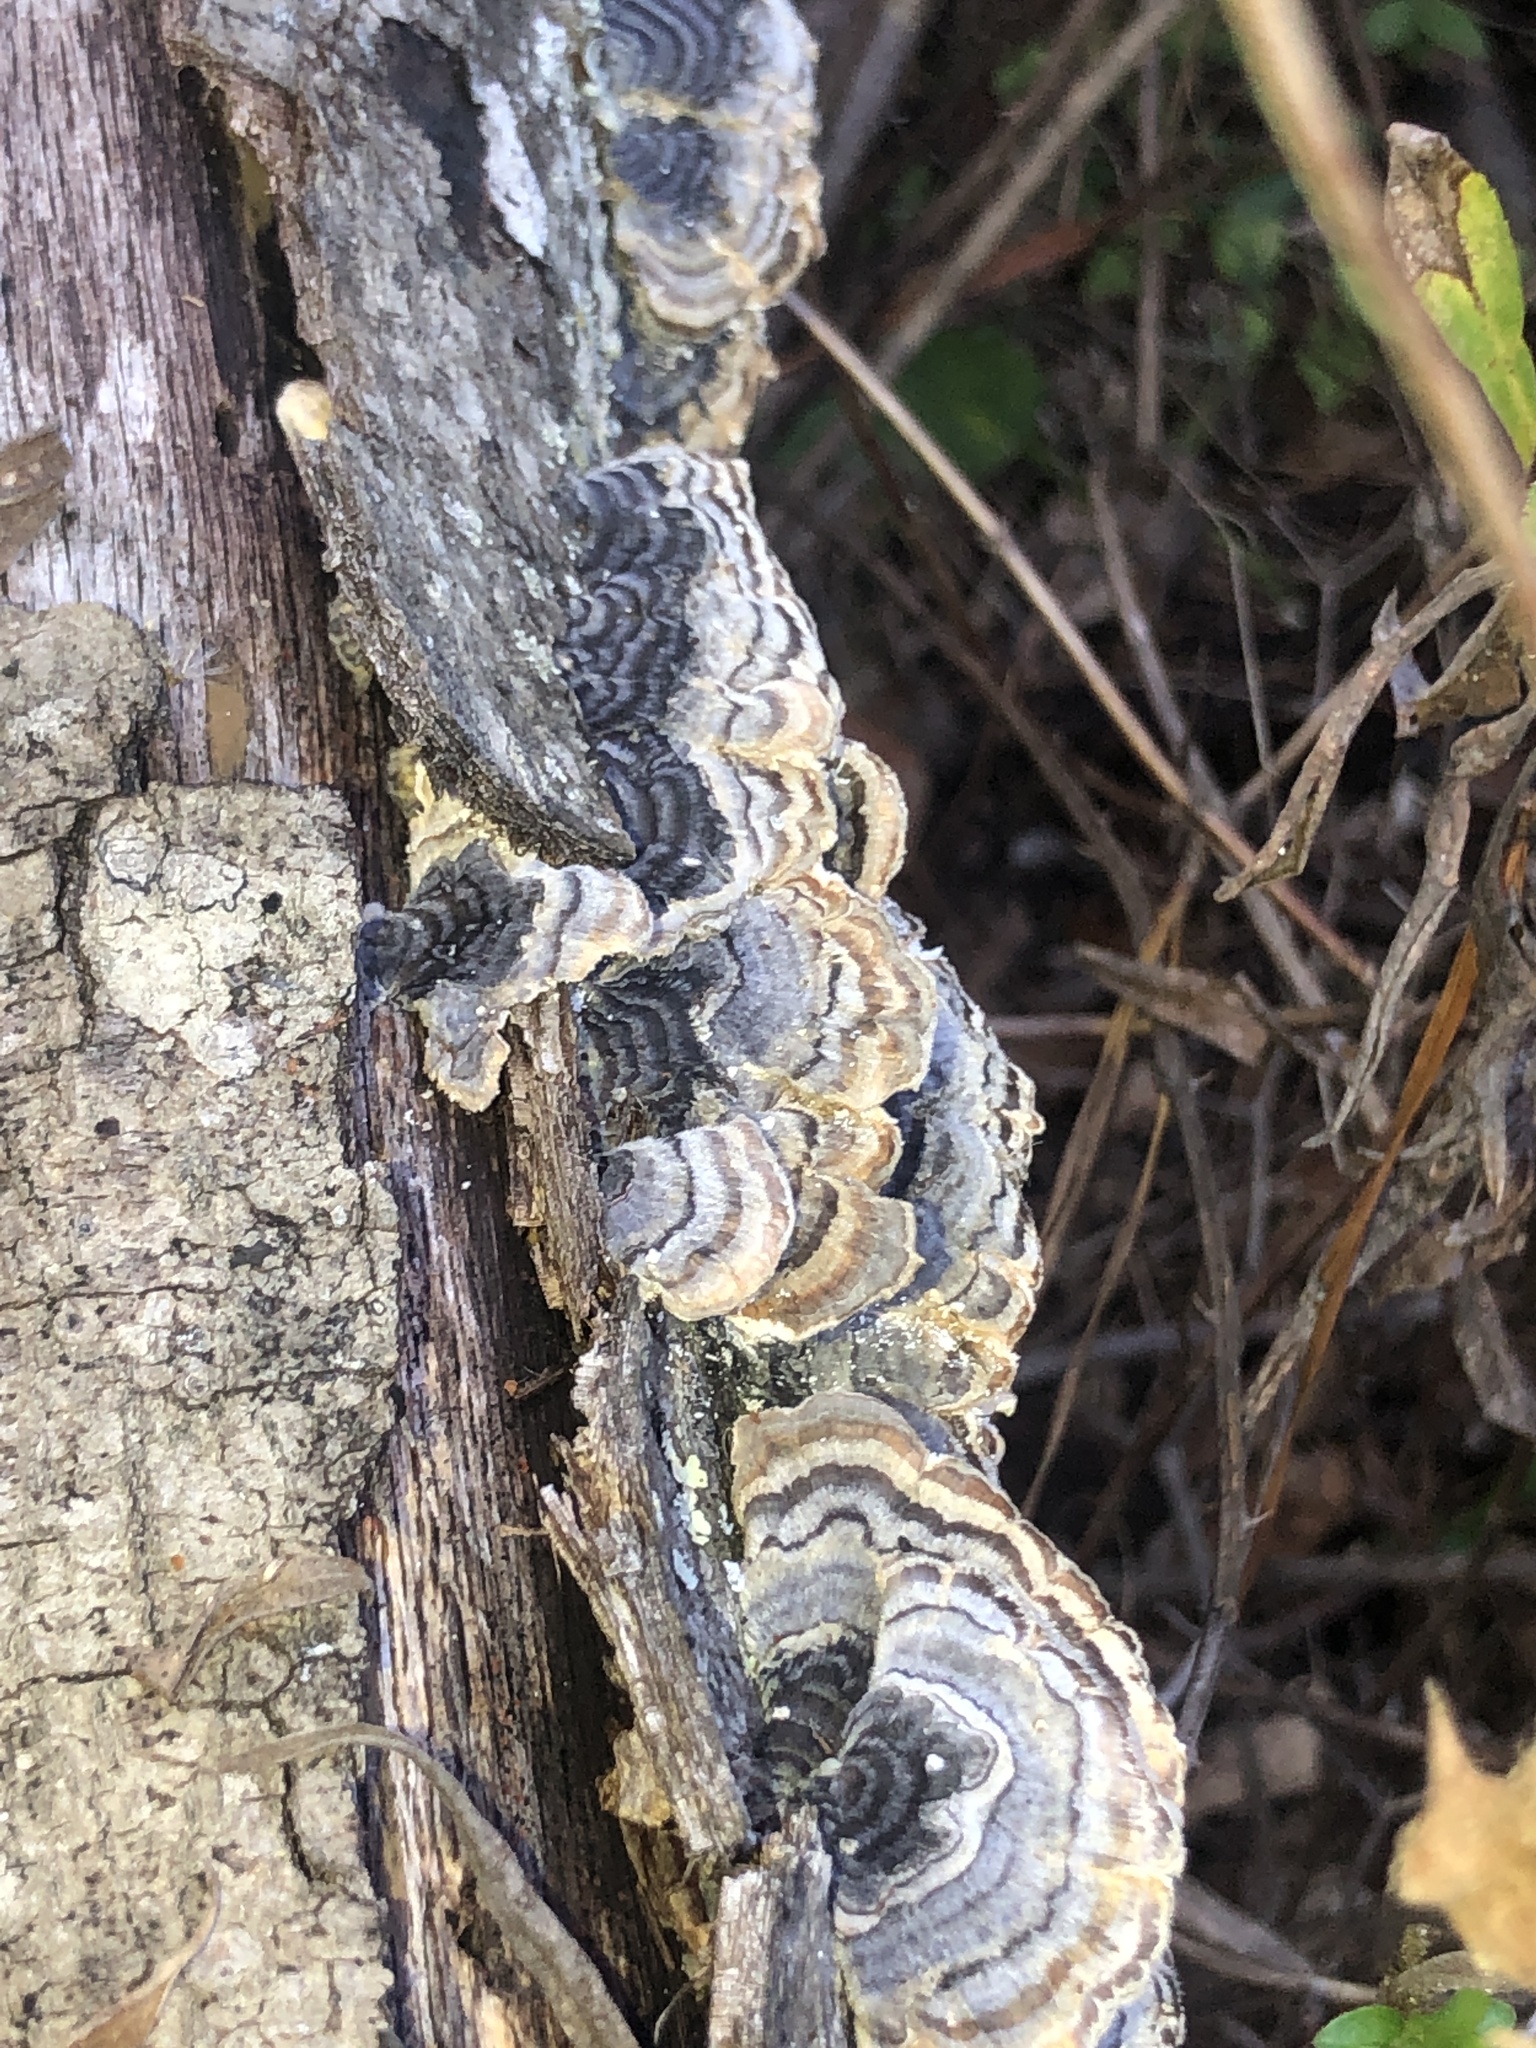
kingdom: Fungi
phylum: Basidiomycota
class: Agaricomycetes
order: Polyporales
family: Polyporaceae
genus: Trametes
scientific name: Trametes versicolor
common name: Turkeytail
